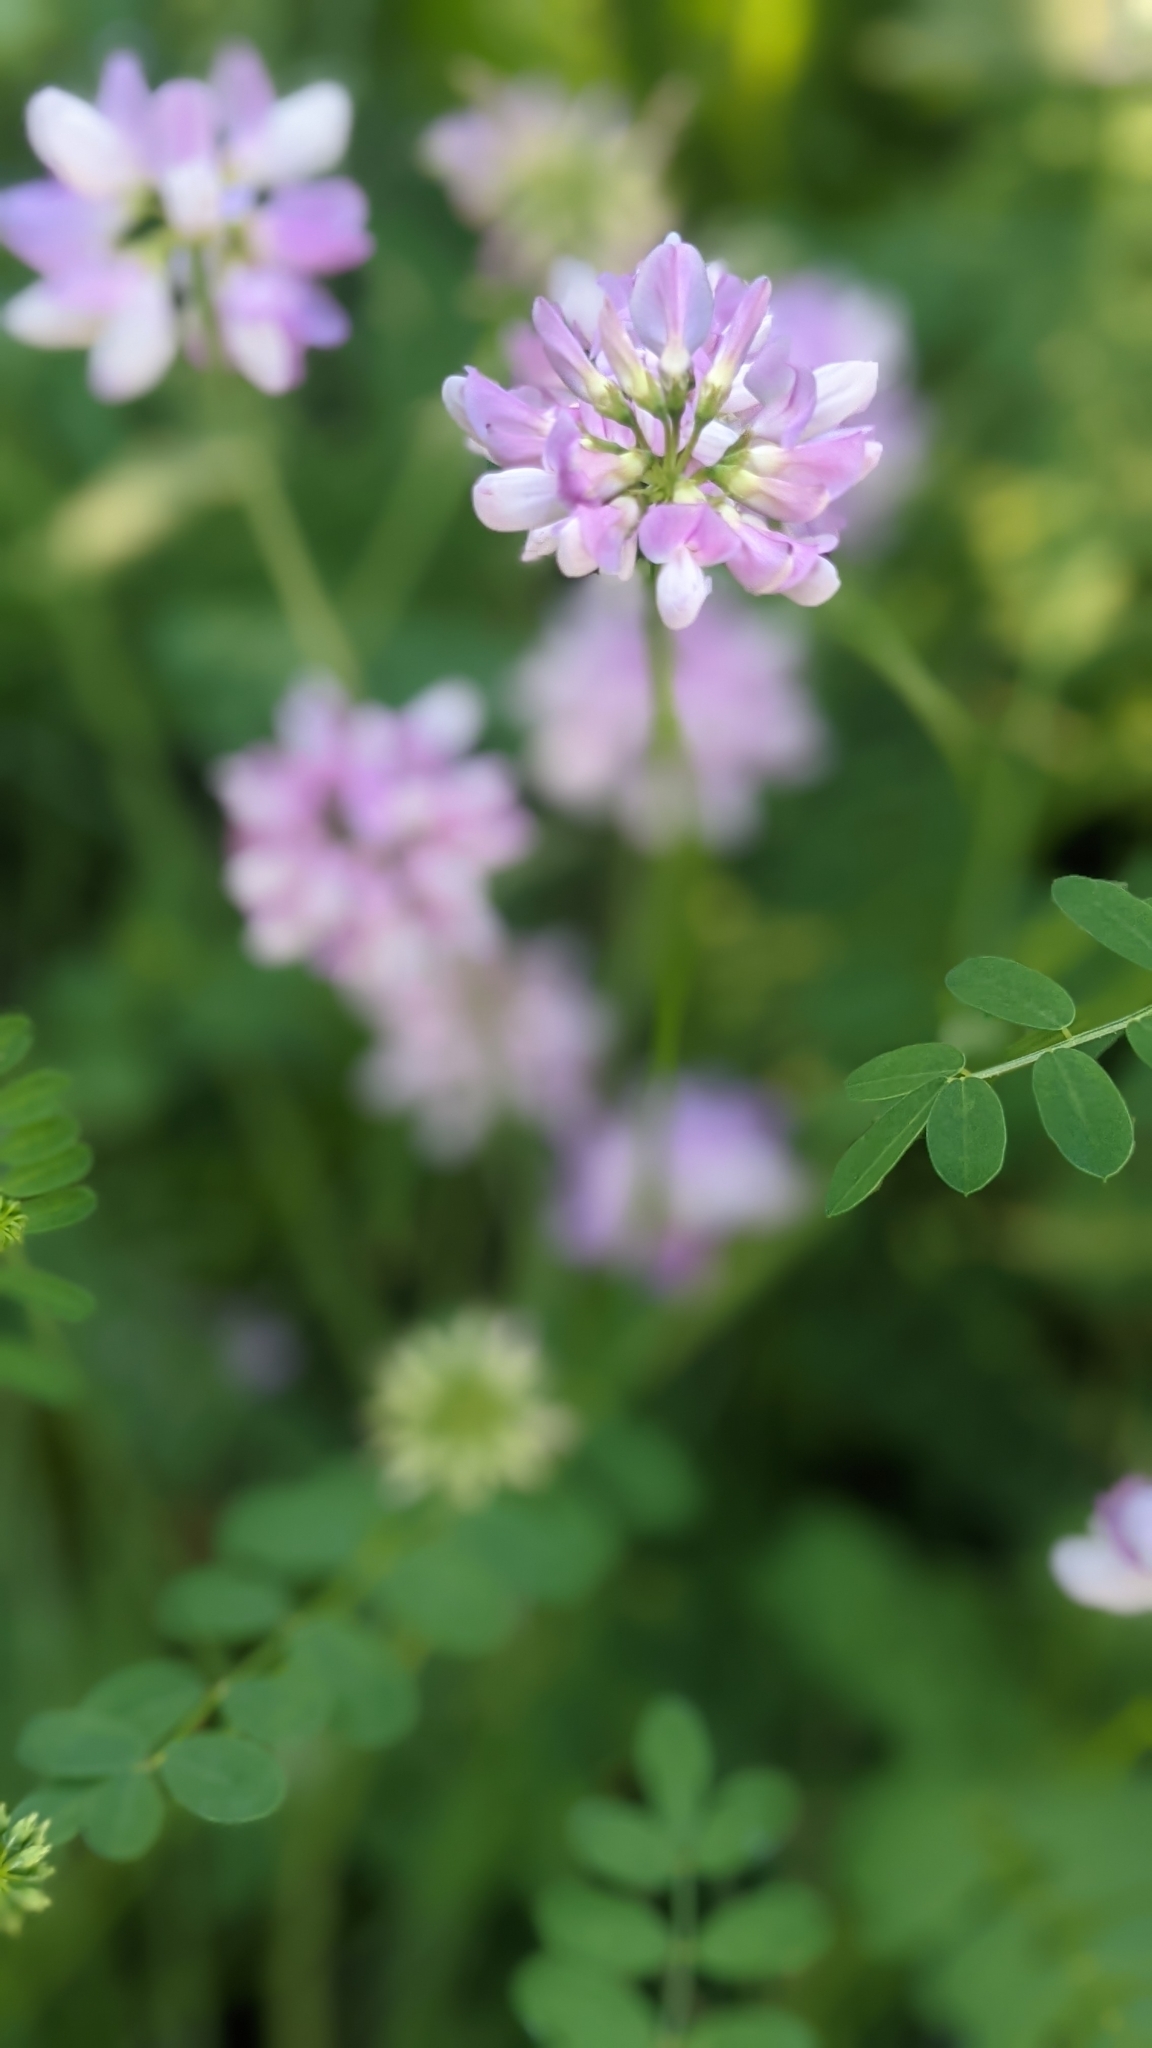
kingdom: Plantae
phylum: Tracheophyta
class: Magnoliopsida
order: Fabales
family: Fabaceae
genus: Coronilla
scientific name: Coronilla varia
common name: Crownvetch
